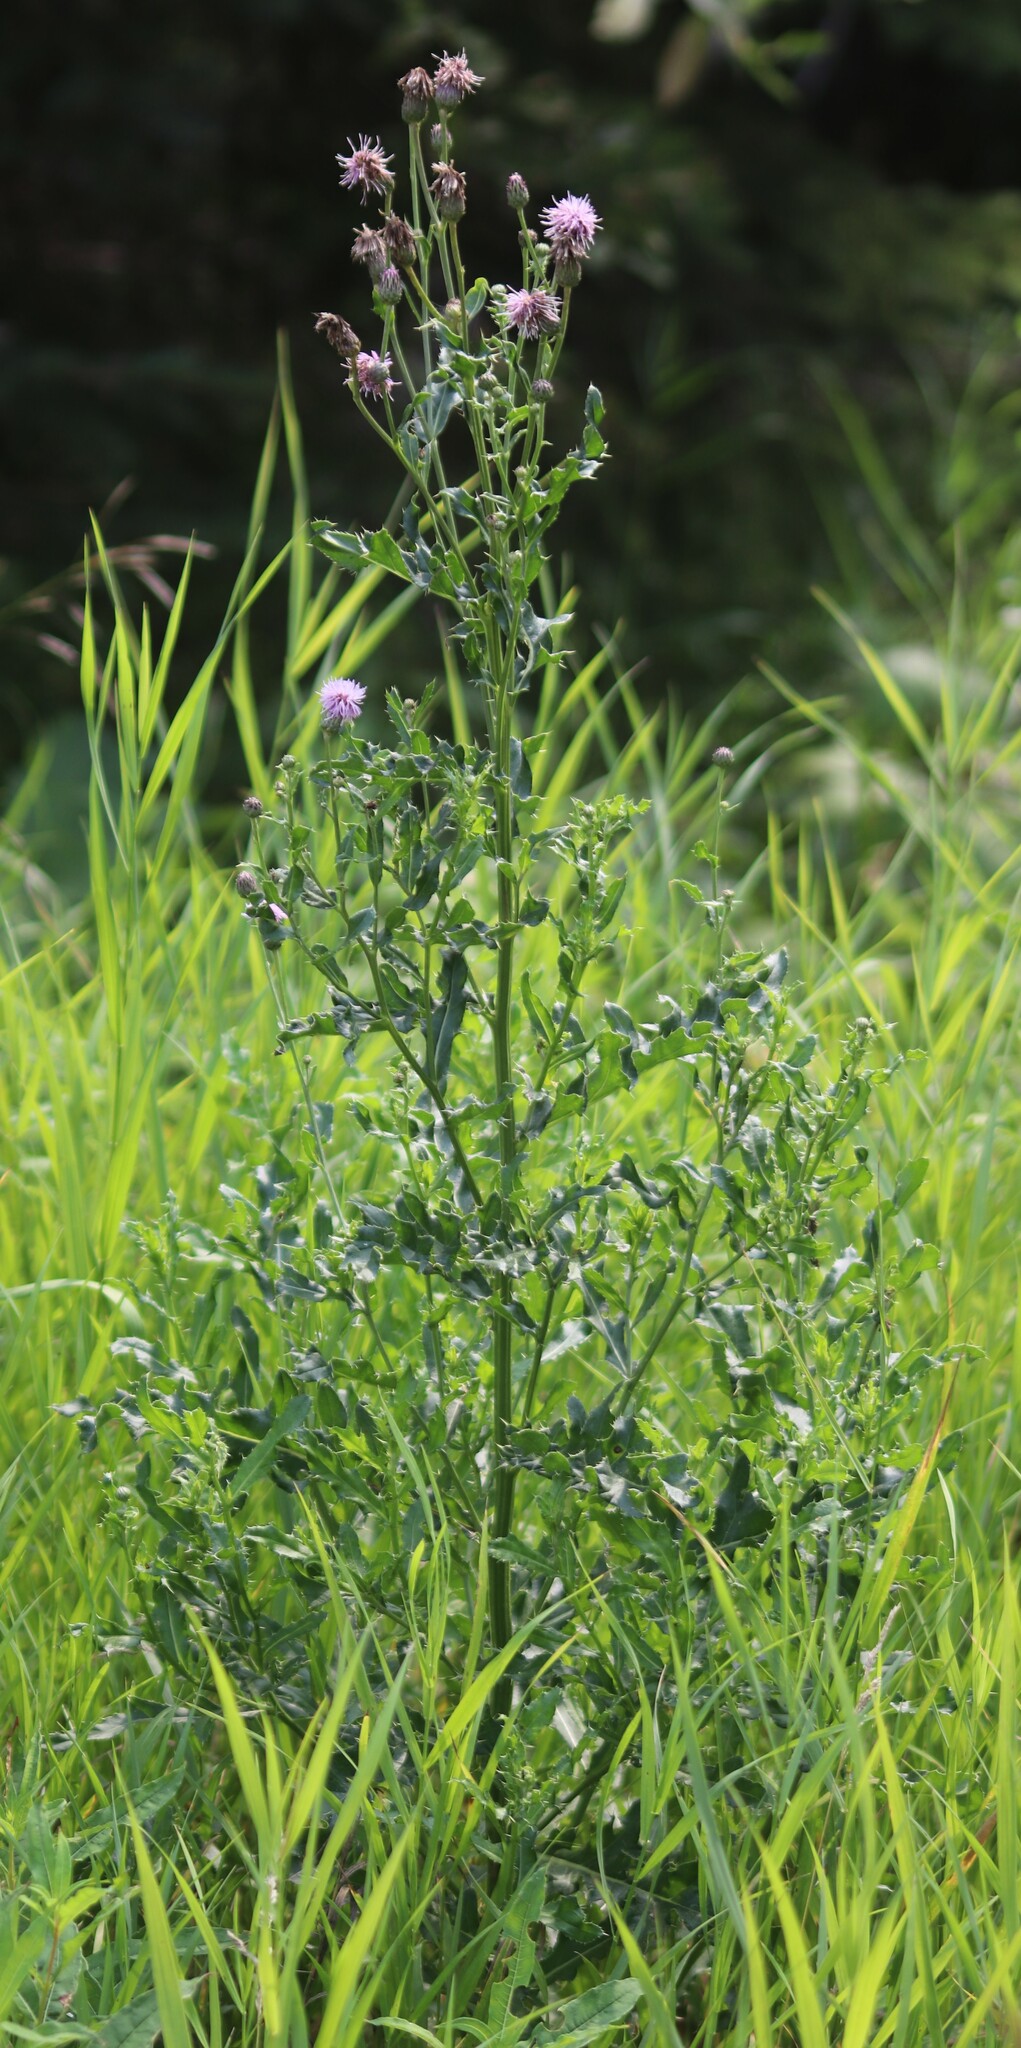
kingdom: Plantae
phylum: Tracheophyta
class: Magnoliopsida
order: Asterales
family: Asteraceae
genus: Cirsium
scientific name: Cirsium arvense
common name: Creeping thistle
